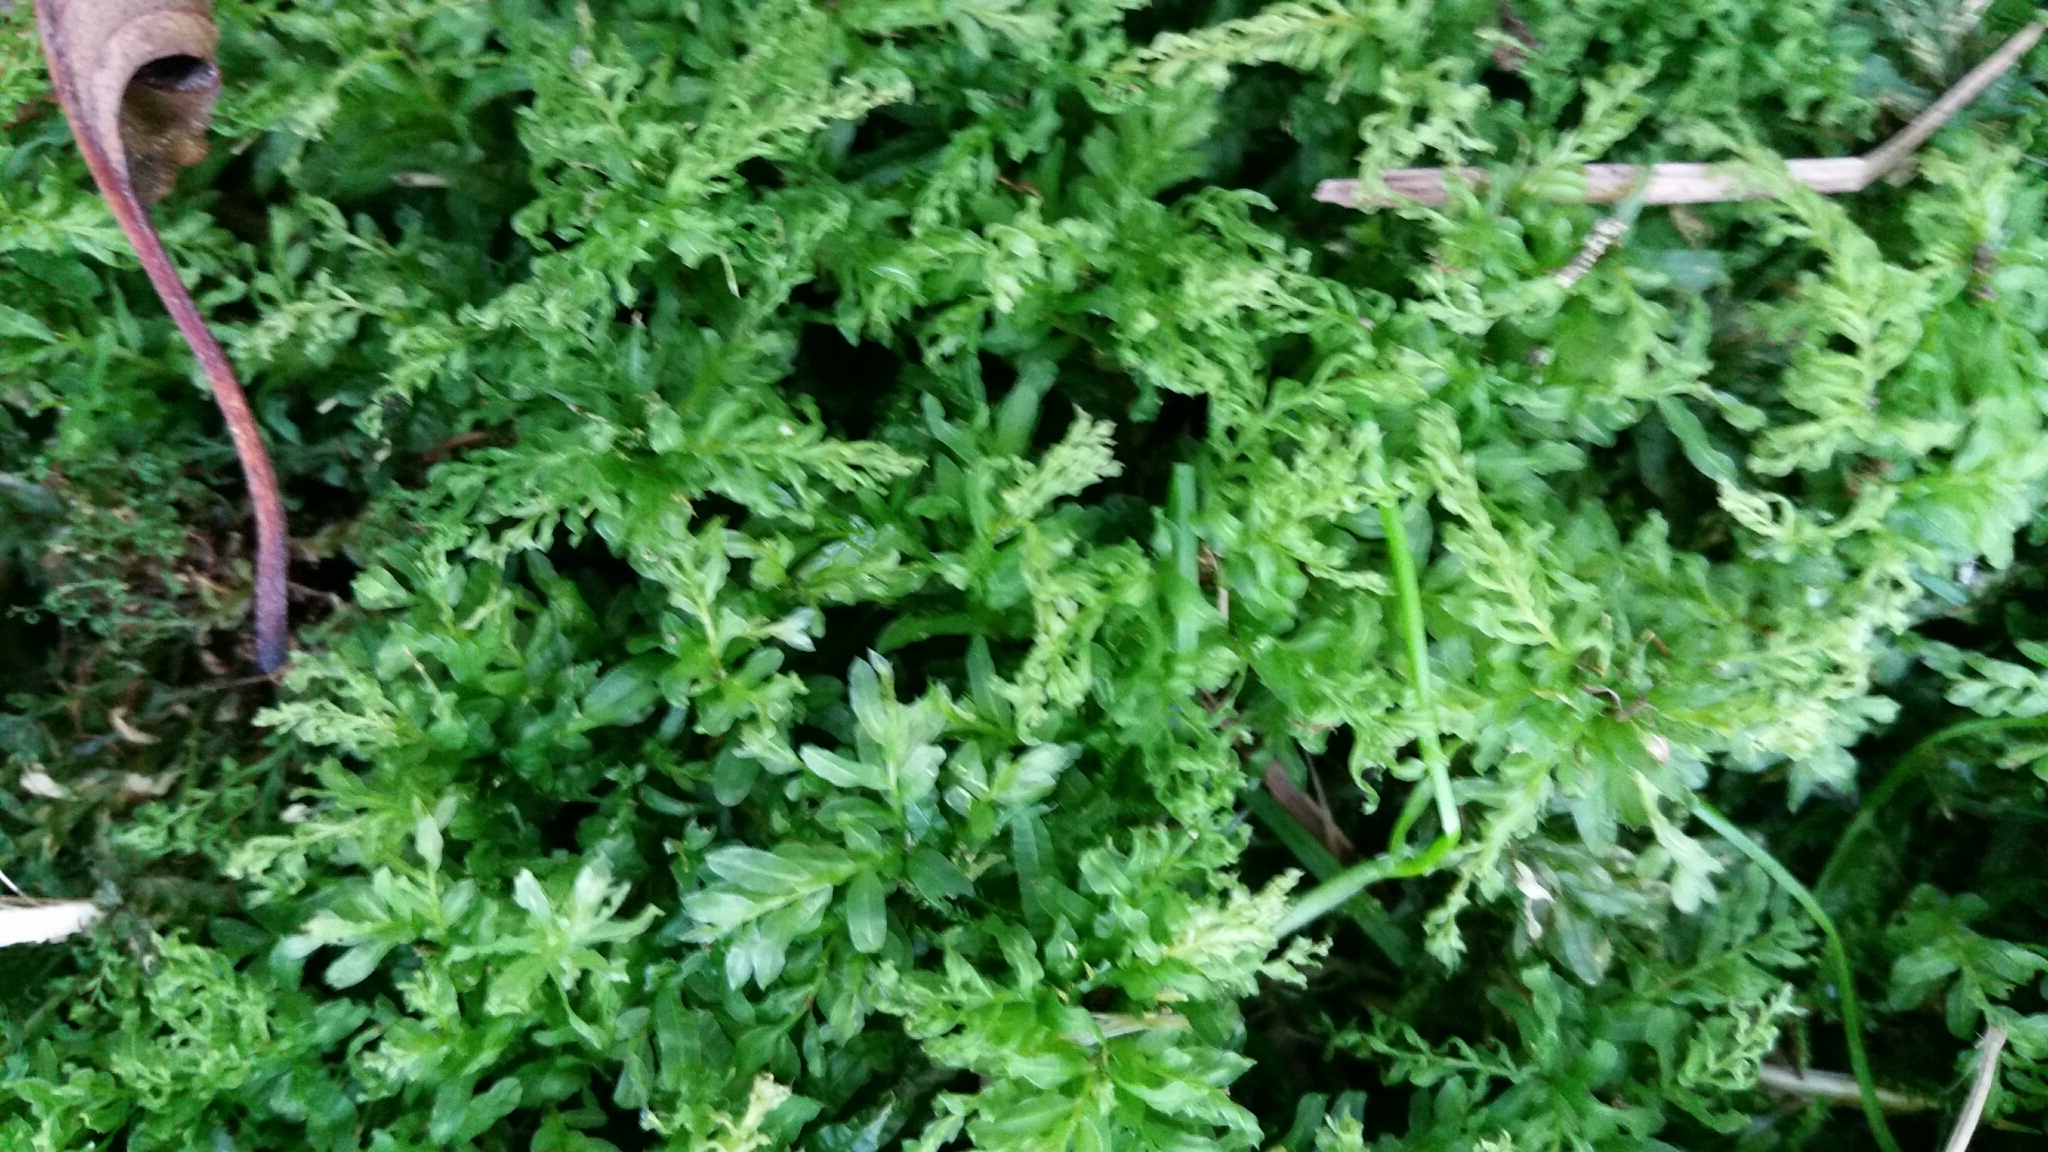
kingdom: Plantae
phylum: Bryophyta
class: Bryopsida
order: Bryales
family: Mniaceae
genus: Plagiomnium
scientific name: Plagiomnium undulatum
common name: Hart's-tongue thyme-moss
